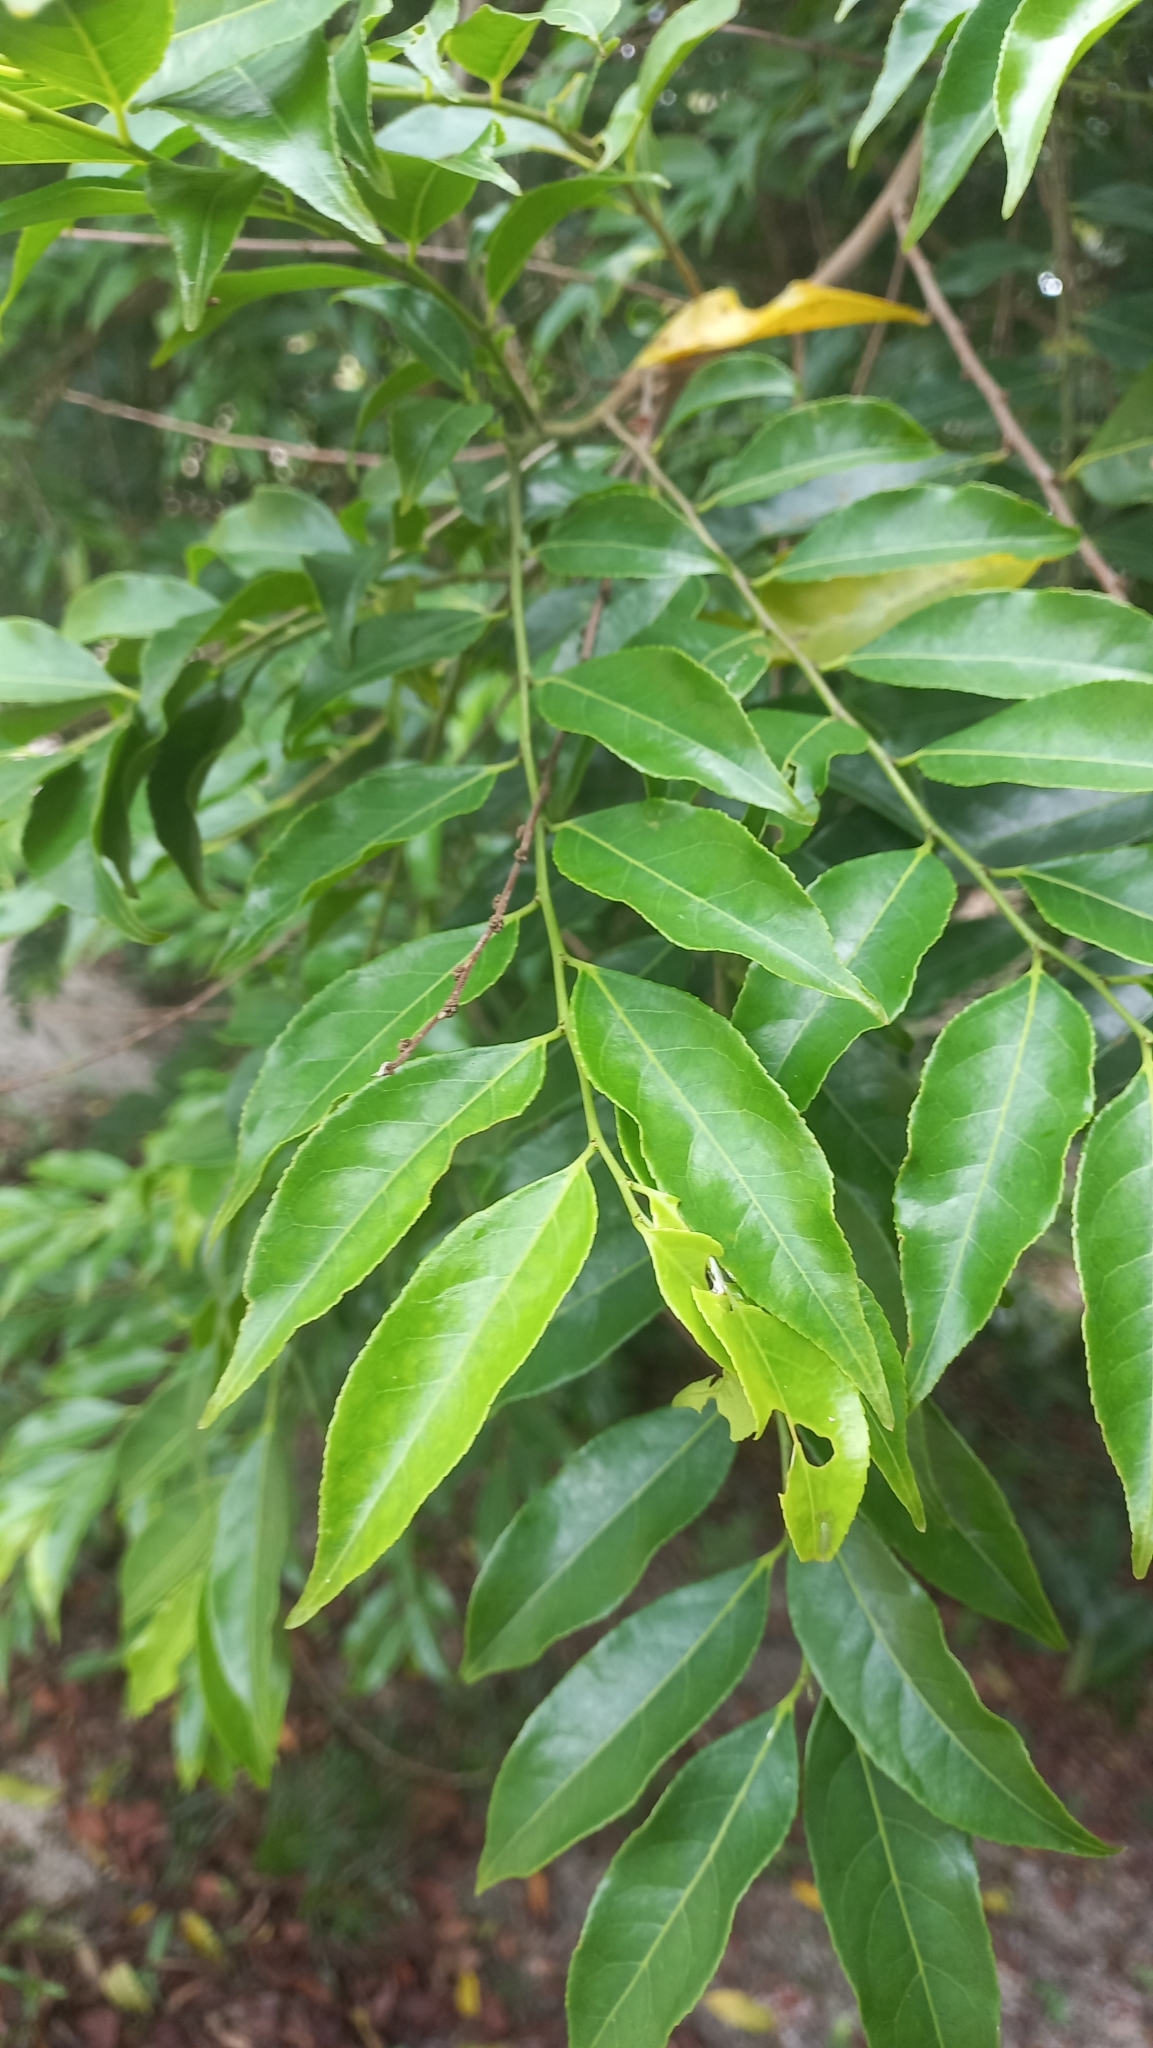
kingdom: Plantae
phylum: Tracheophyta
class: Magnoliopsida
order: Malpighiales
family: Salicaceae
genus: Casearia
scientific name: Casearia sylvestris
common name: Wild sage
